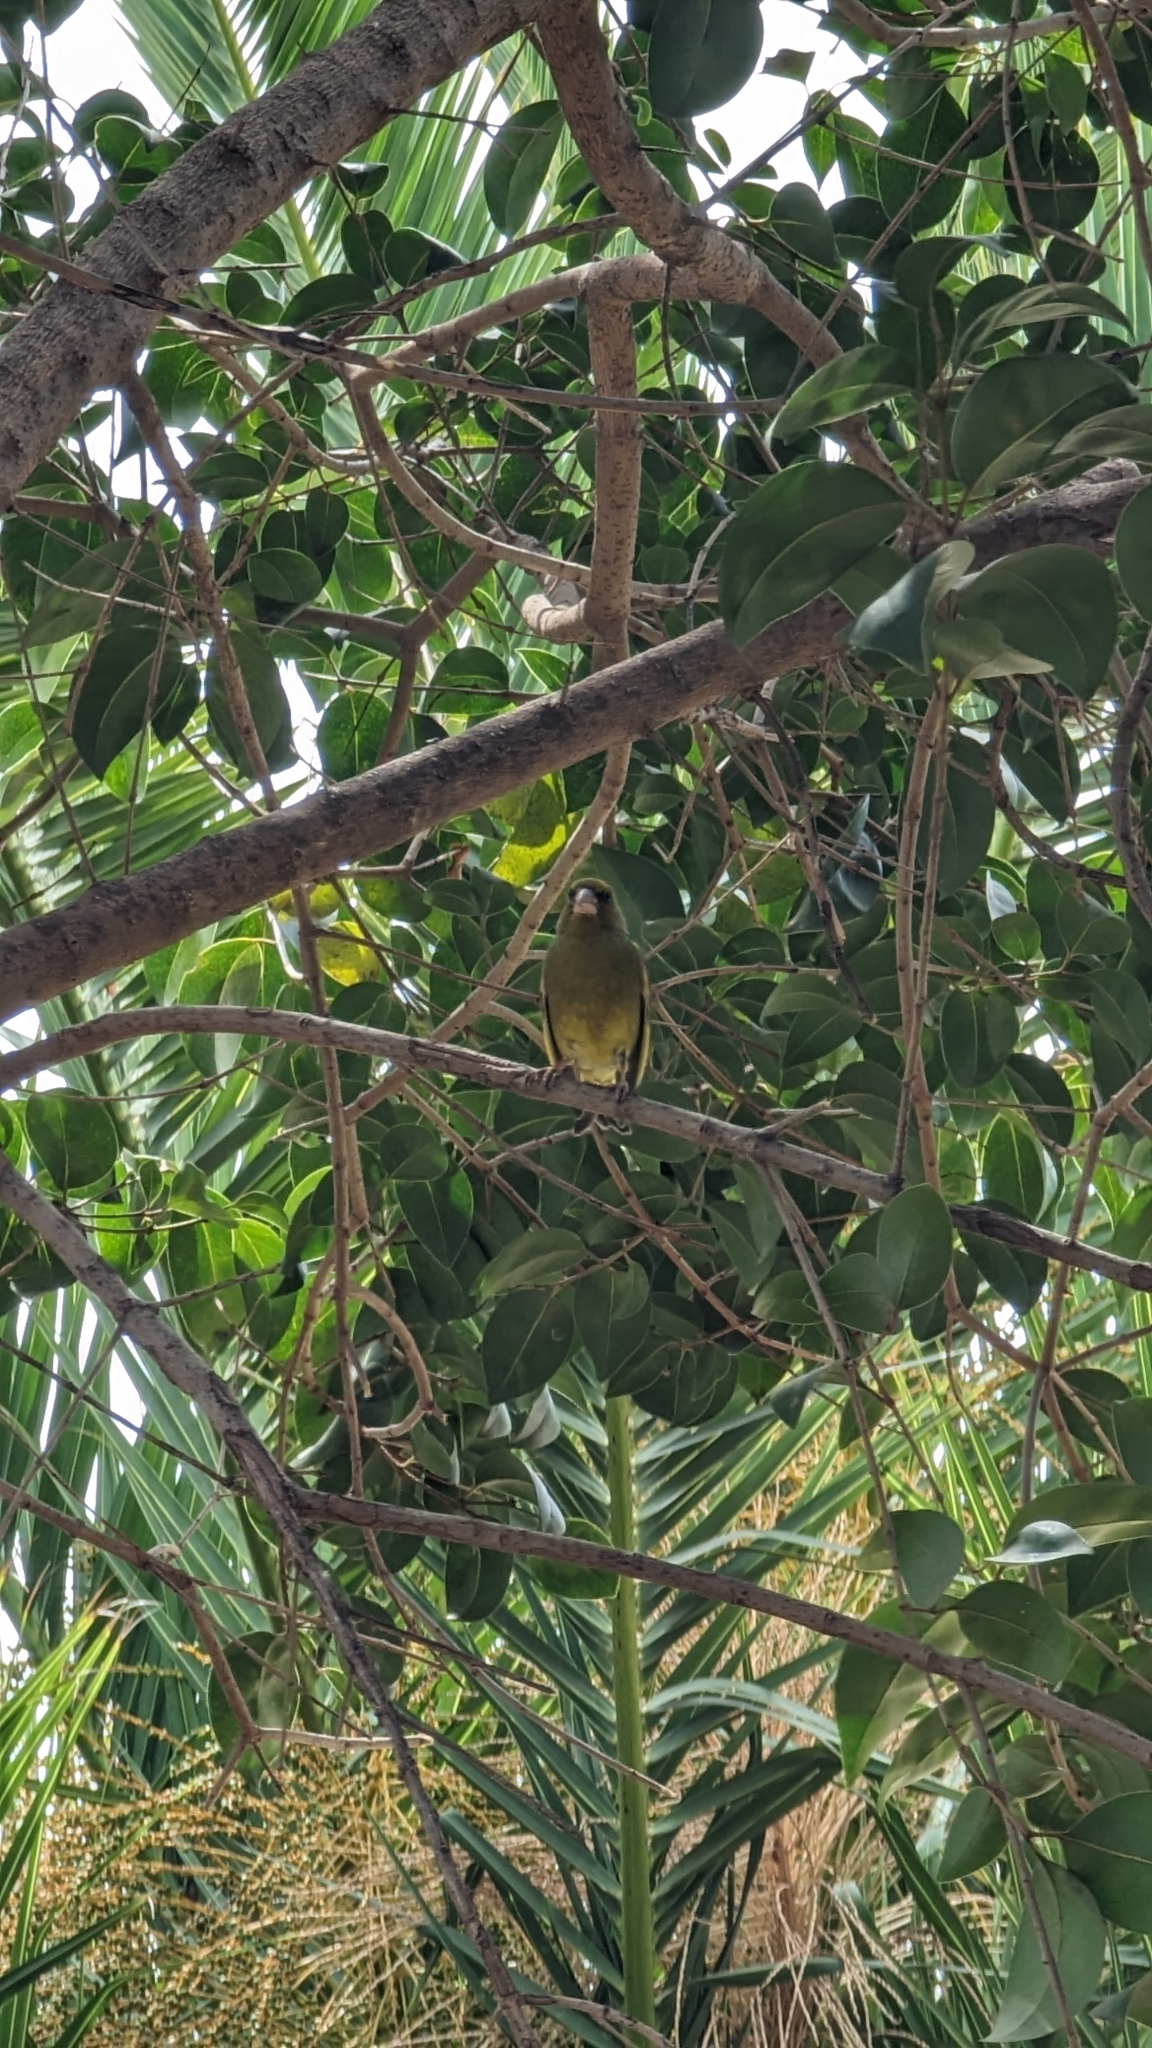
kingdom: Plantae
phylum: Tracheophyta
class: Liliopsida
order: Poales
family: Poaceae
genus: Chloris
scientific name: Chloris chloris
